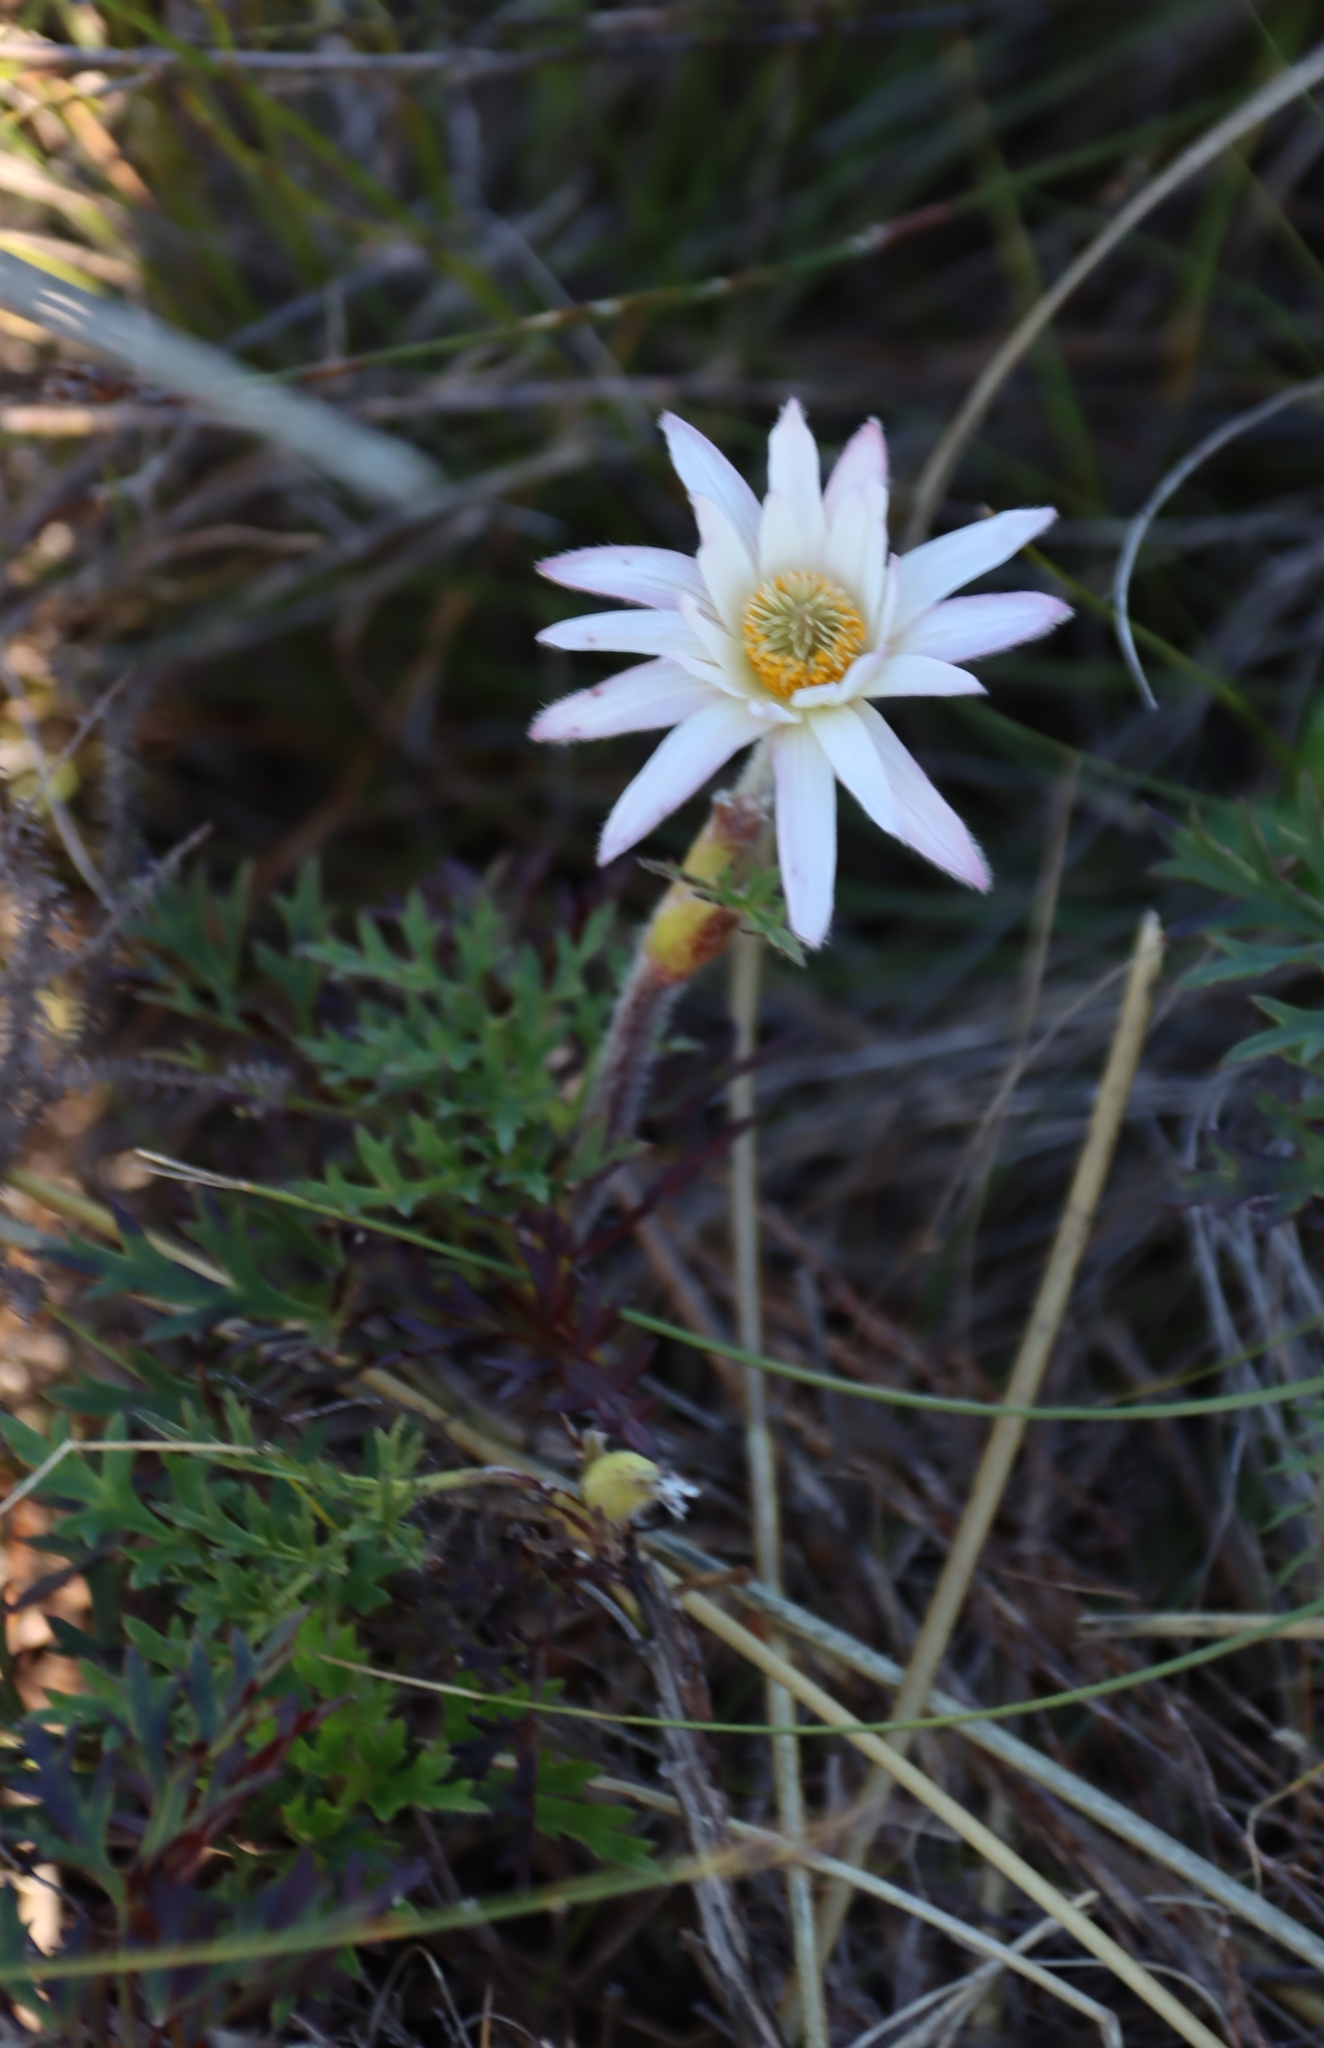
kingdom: Plantae
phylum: Tracheophyta
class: Magnoliopsida
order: Ranunculales
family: Ranunculaceae
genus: Knowltonia
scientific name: Knowltonia tenuifolia
